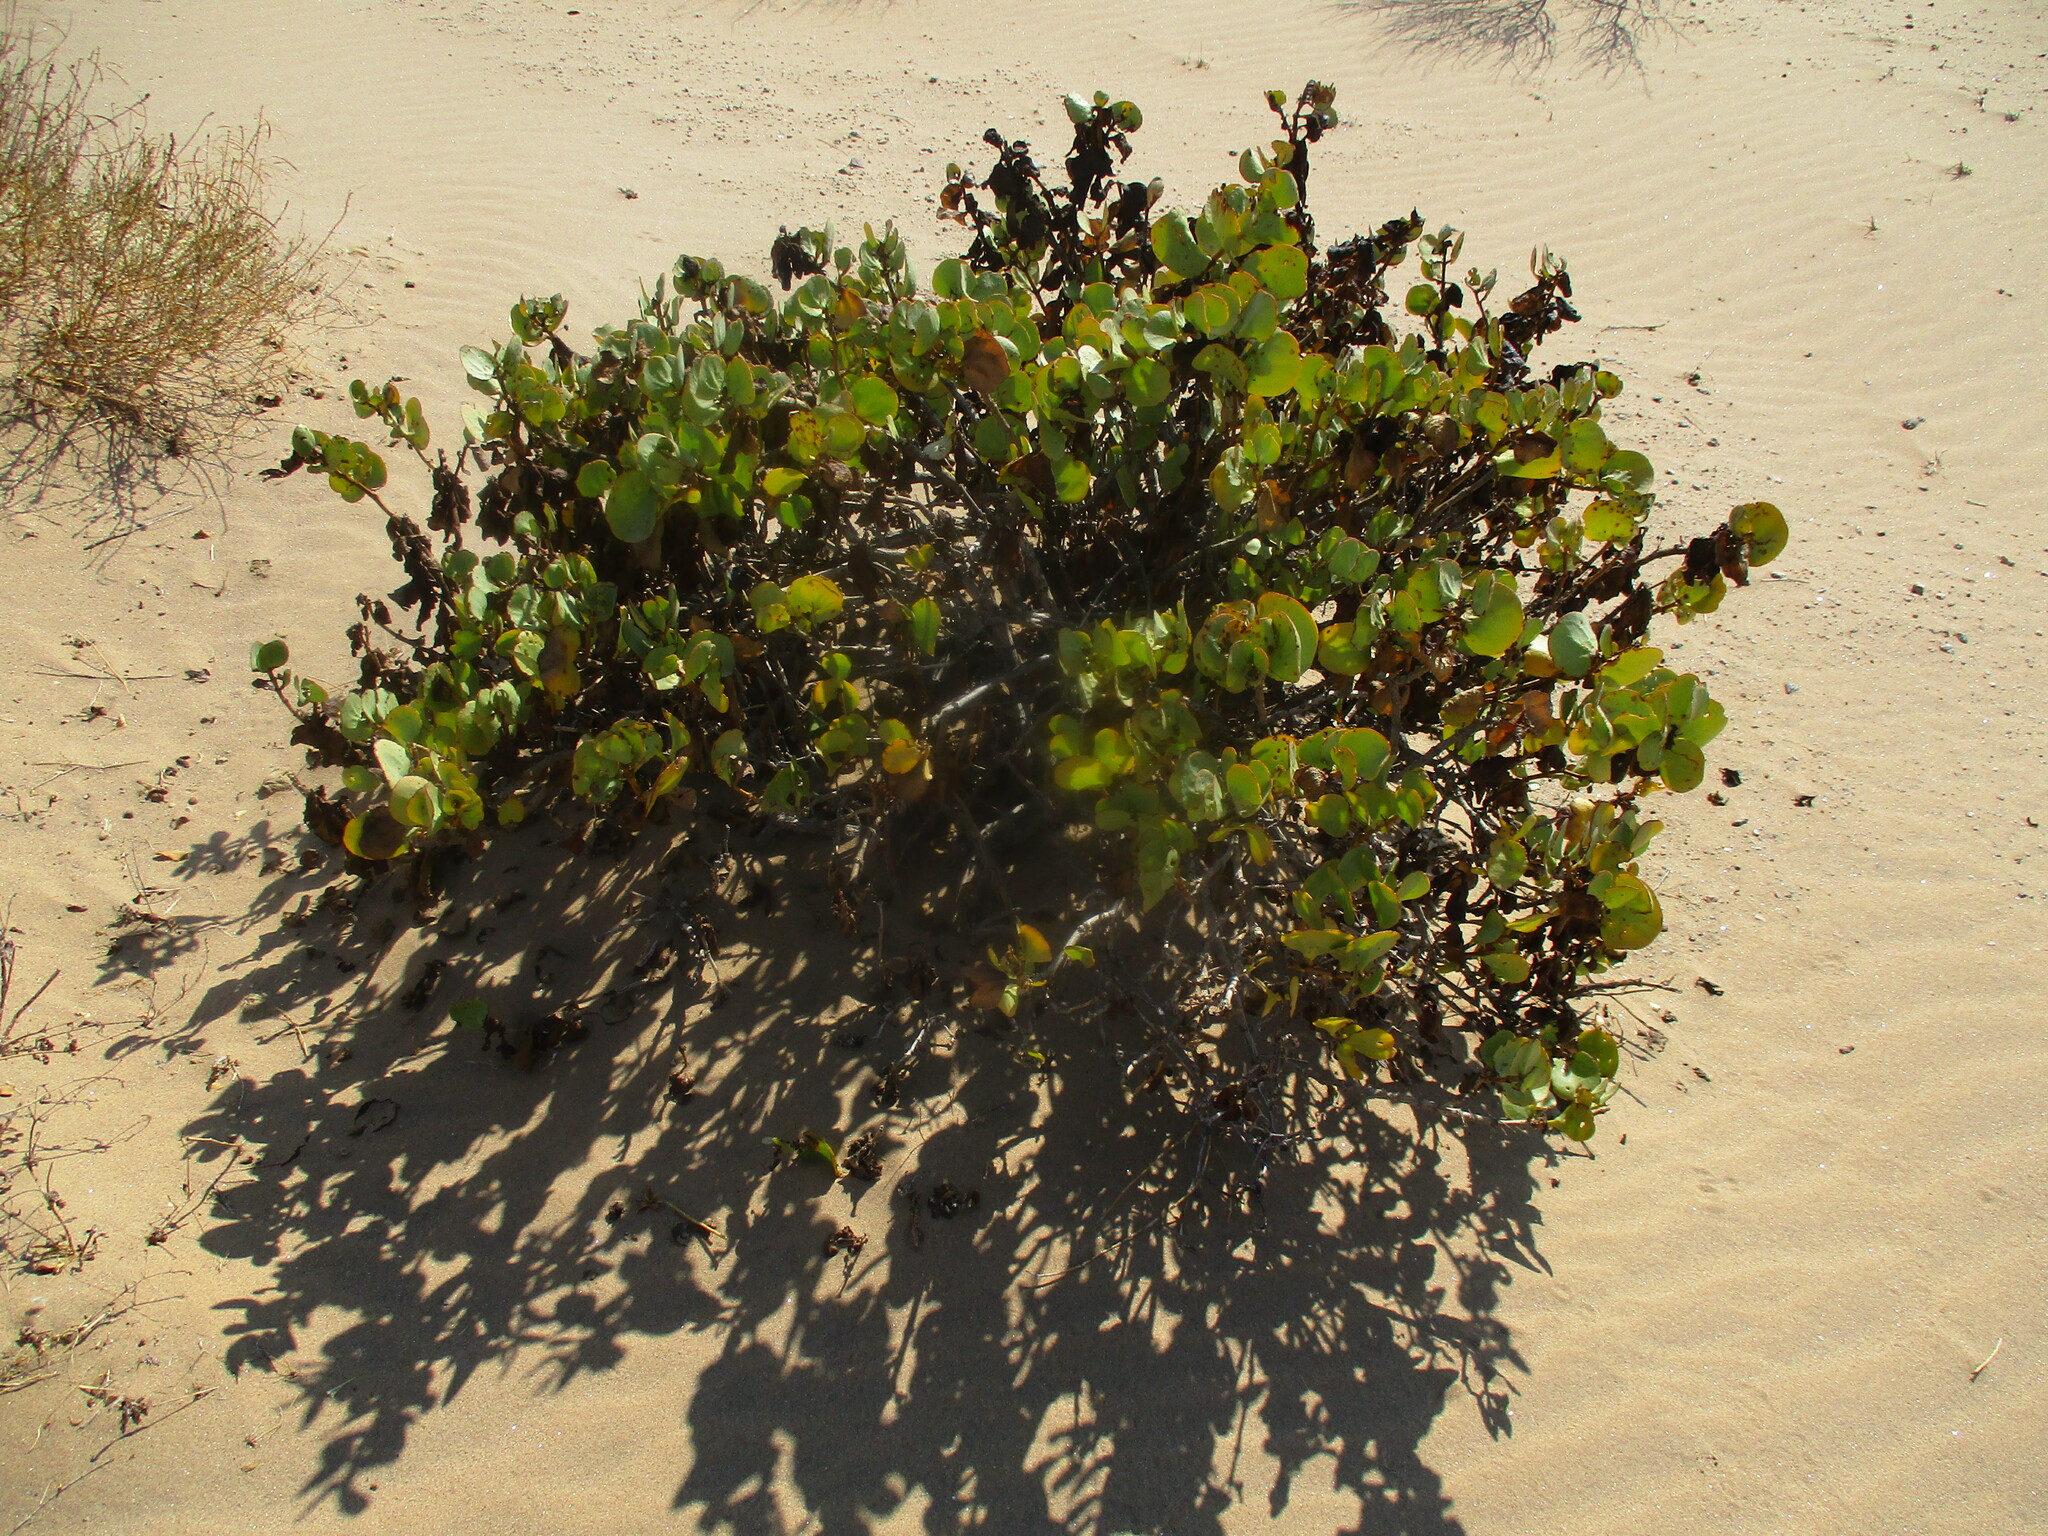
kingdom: Plantae
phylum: Tracheophyta
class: Magnoliopsida
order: Zygophyllales
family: Zygophyllaceae
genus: Tetraena
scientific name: Tetraena stapfii
